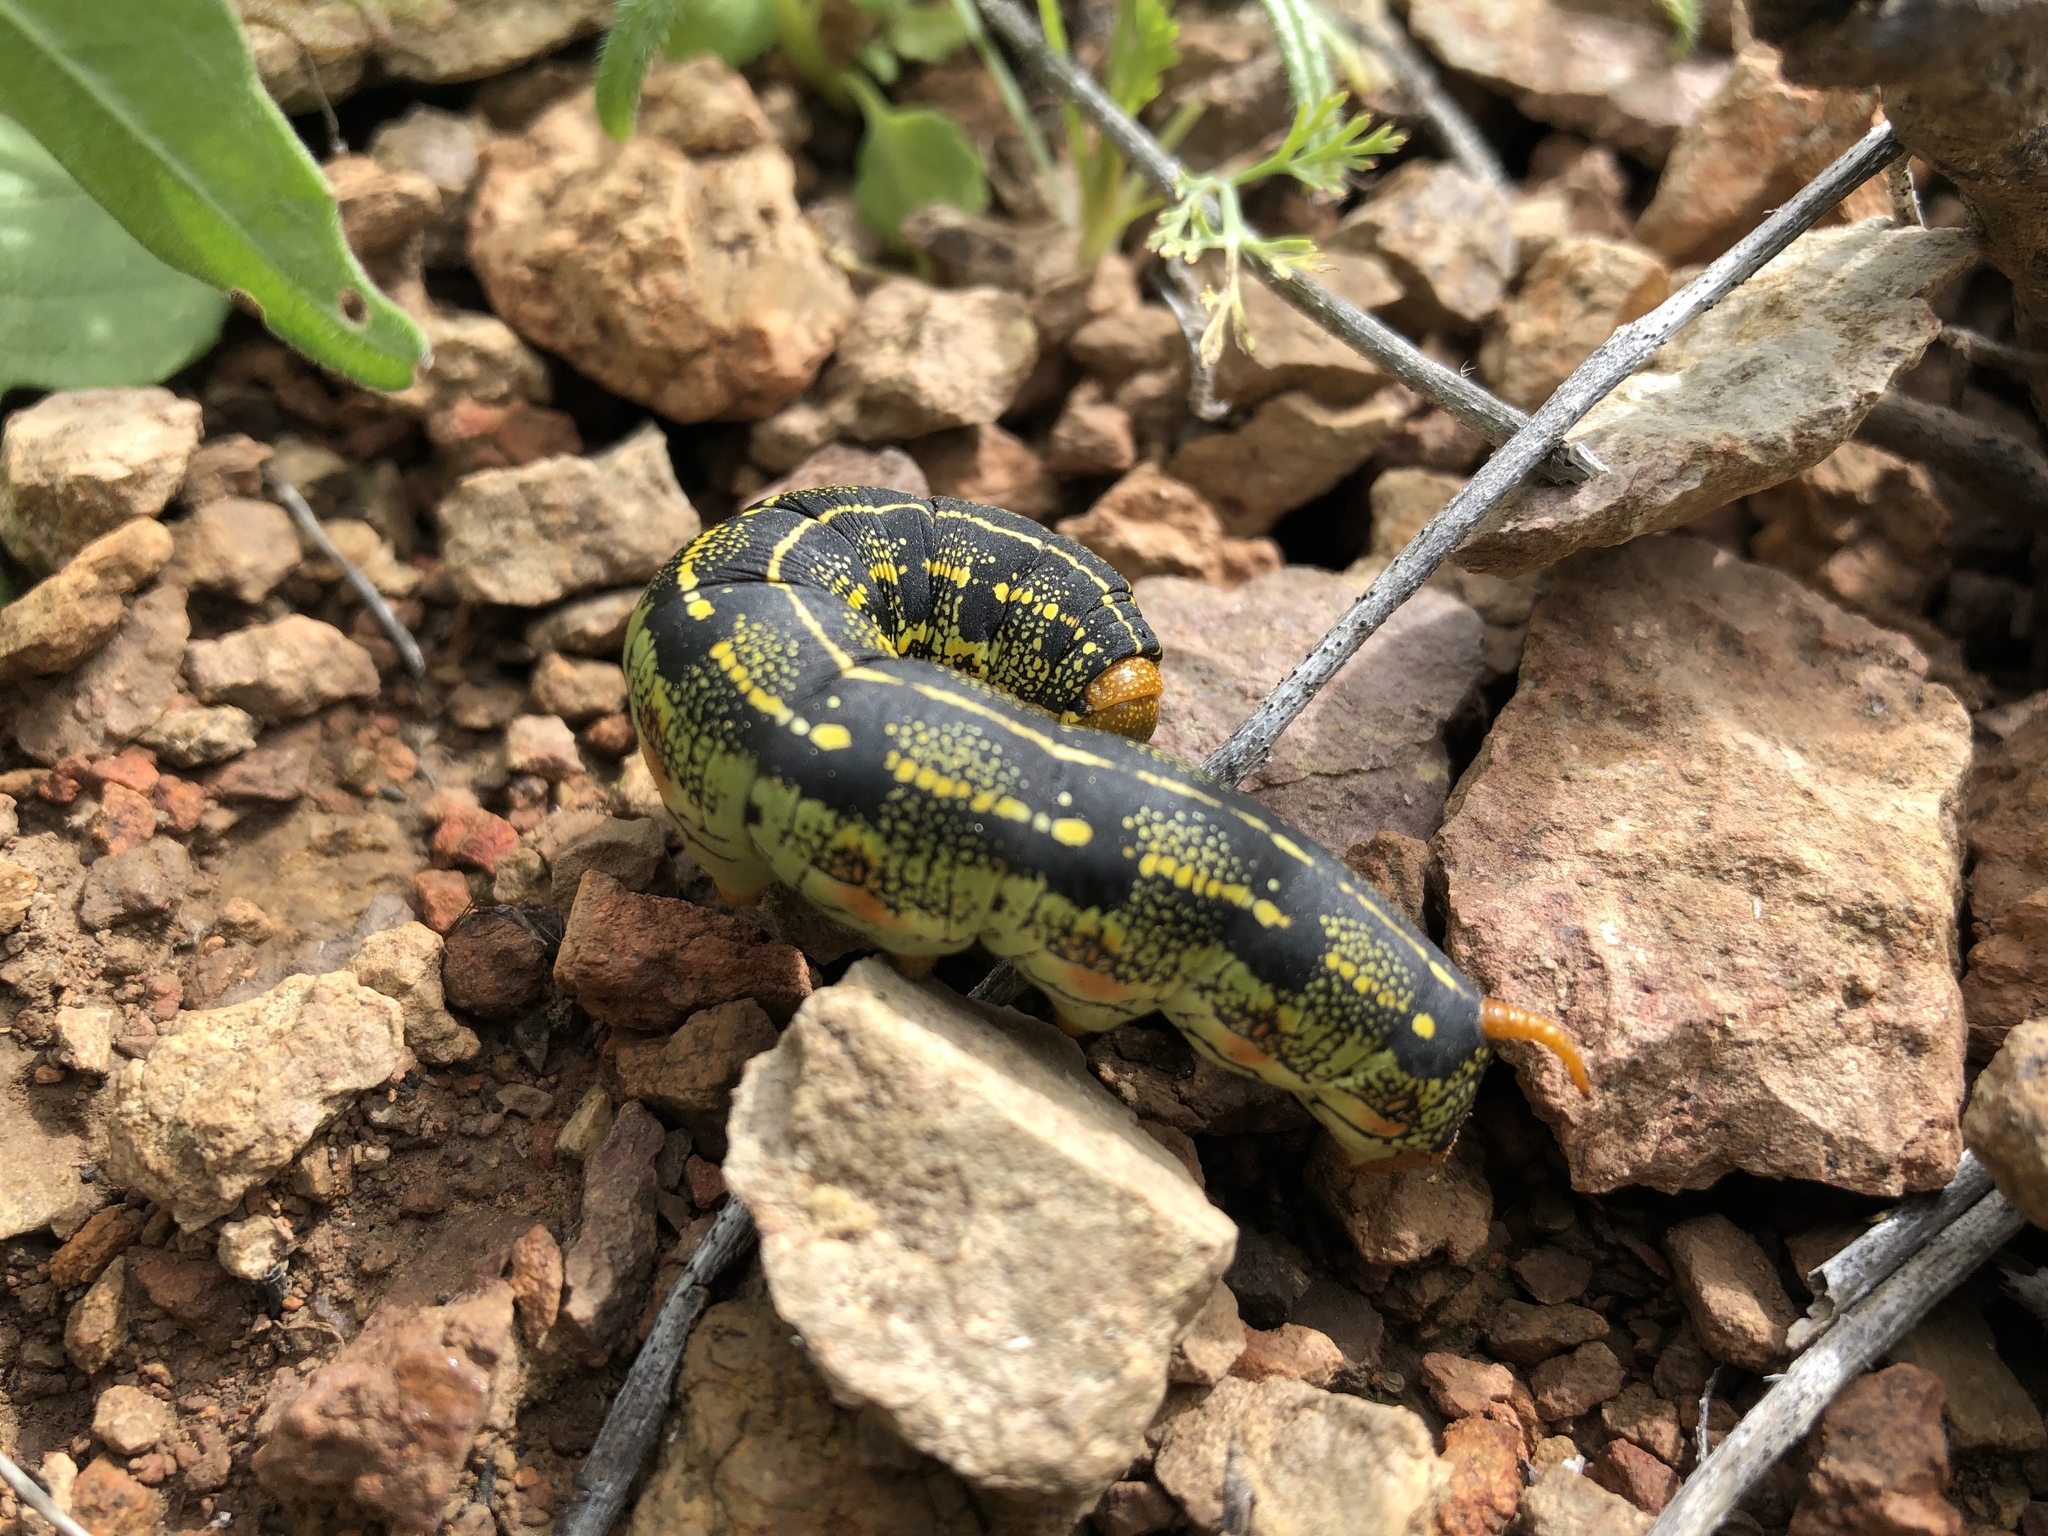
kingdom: Animalia
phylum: Arthropoda
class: Insecta
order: Lepidoptera
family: Sphingidae
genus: Hyles
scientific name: Hyles lineata
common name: White-lined sphinx
